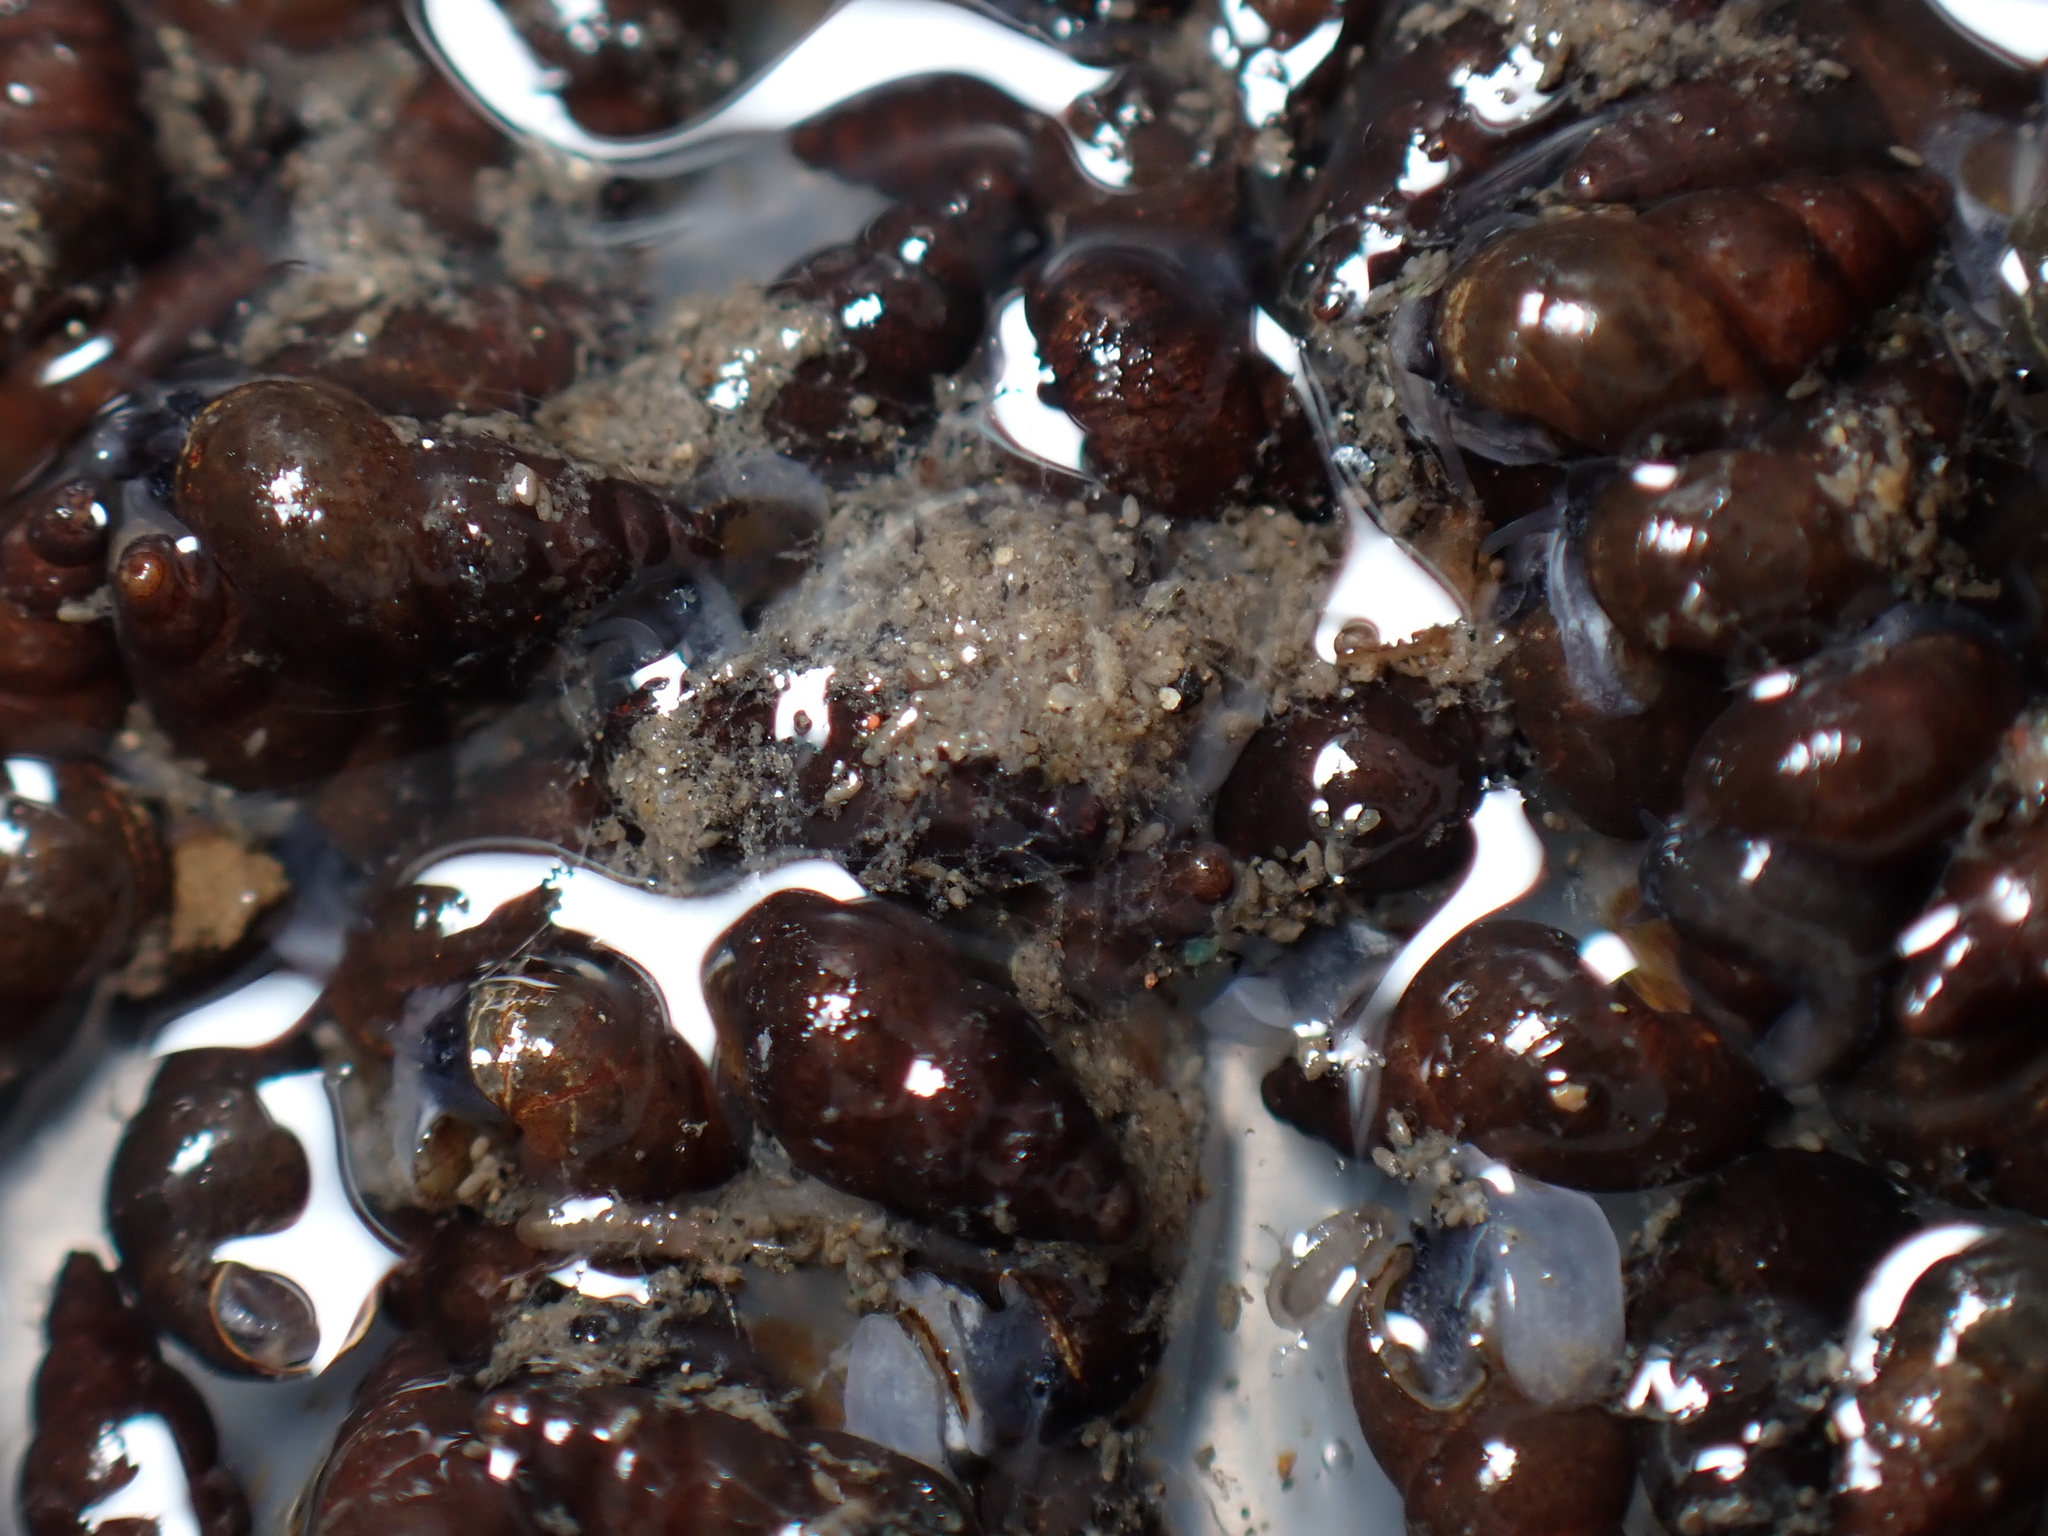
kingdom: Animalia
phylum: Mollusca
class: Gastropoda
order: Littorinimorpha
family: Tateidae
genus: Potamopyrgus
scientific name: Potamopyrgus antipodarum
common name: Jenkins' spire snail
